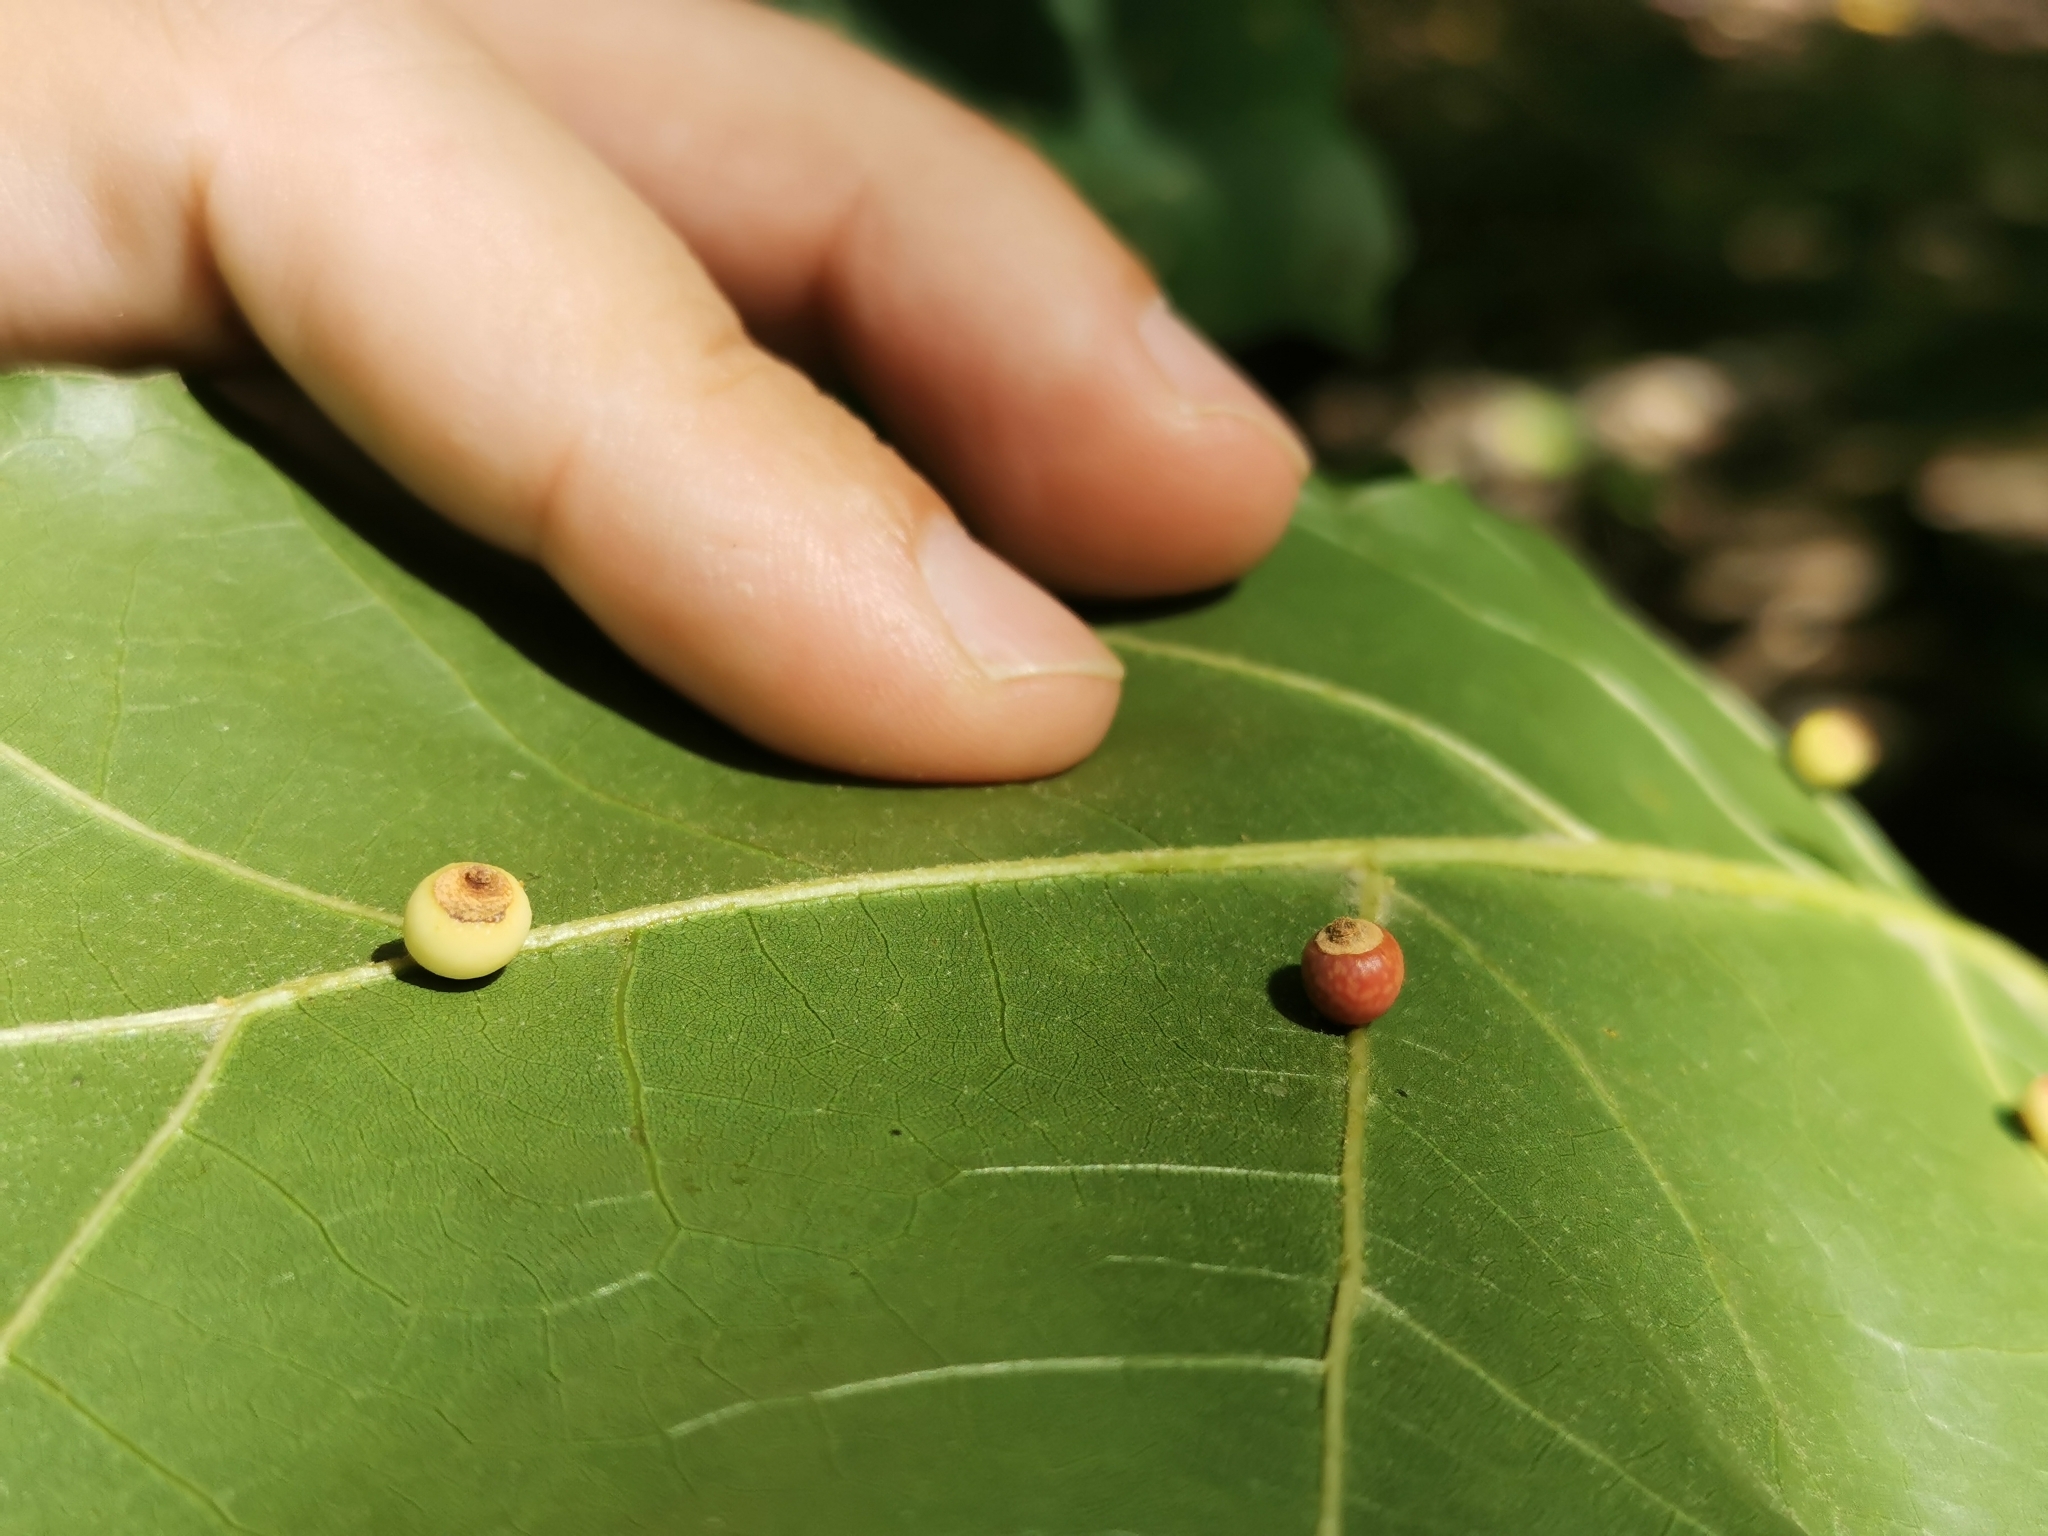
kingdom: Animalia
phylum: Arthropoda
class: Insecta
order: Hymenoptera
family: Cynipidae
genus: Kokkocynips
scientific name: Kokkocynips rileyi
